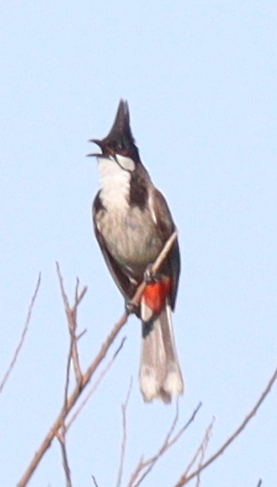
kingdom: Animalia
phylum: Chordata
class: Aves
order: Passeriformes
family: Pycnonotidae
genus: Pycnonotus
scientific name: Pycnonotus jocosus
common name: Red-whiskered bulbul
